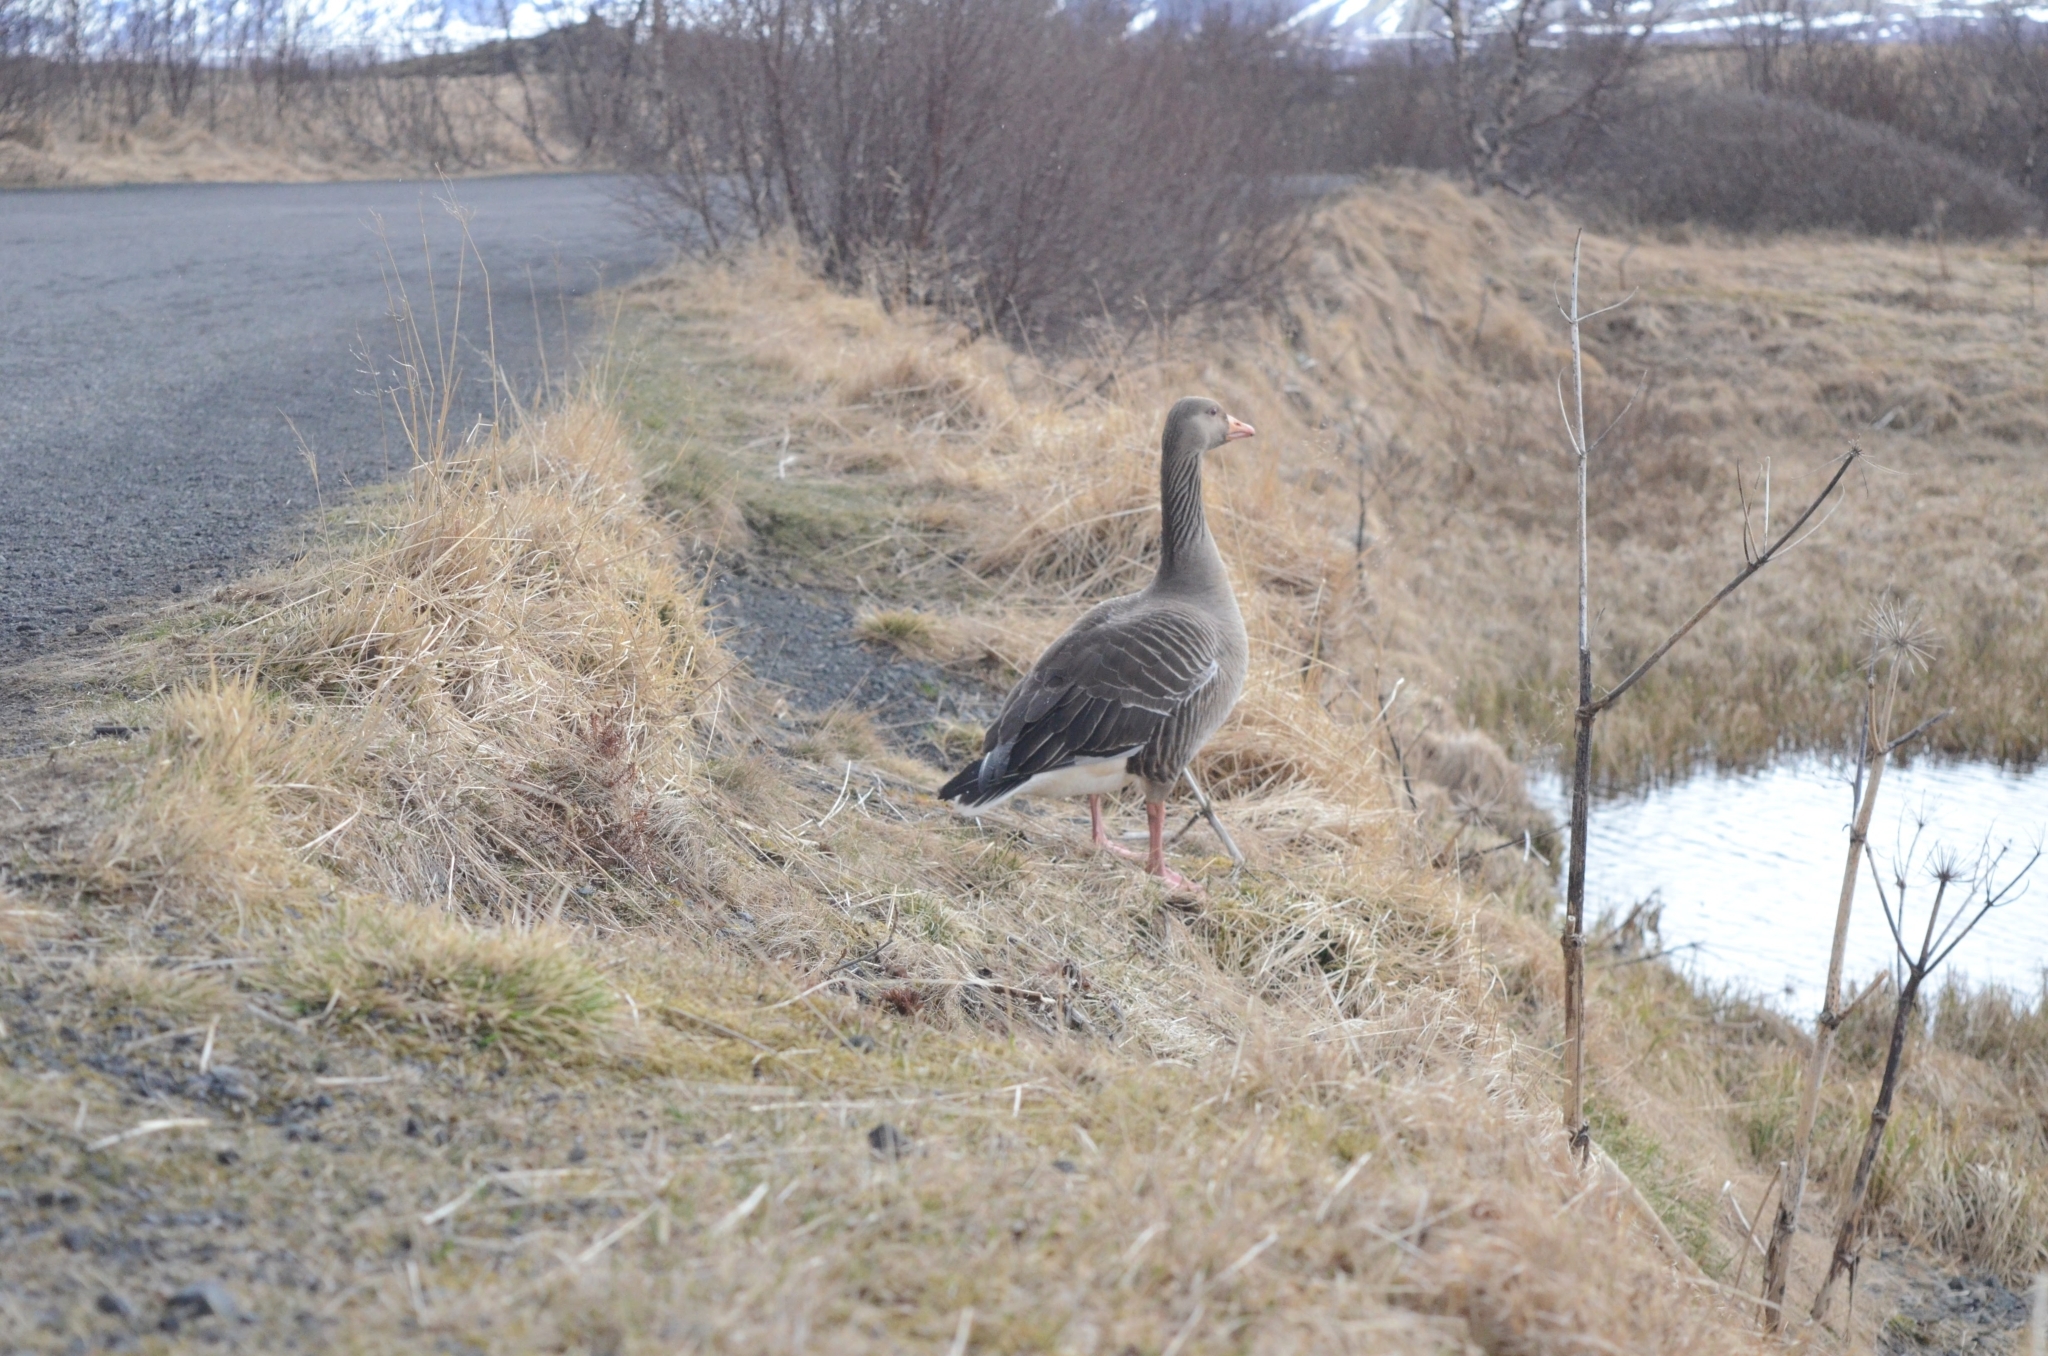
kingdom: Animalia
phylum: Chordata
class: Aves
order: Anseriformes
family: Anatidae
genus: Anser
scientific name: Anser anser
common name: Greylag goose
